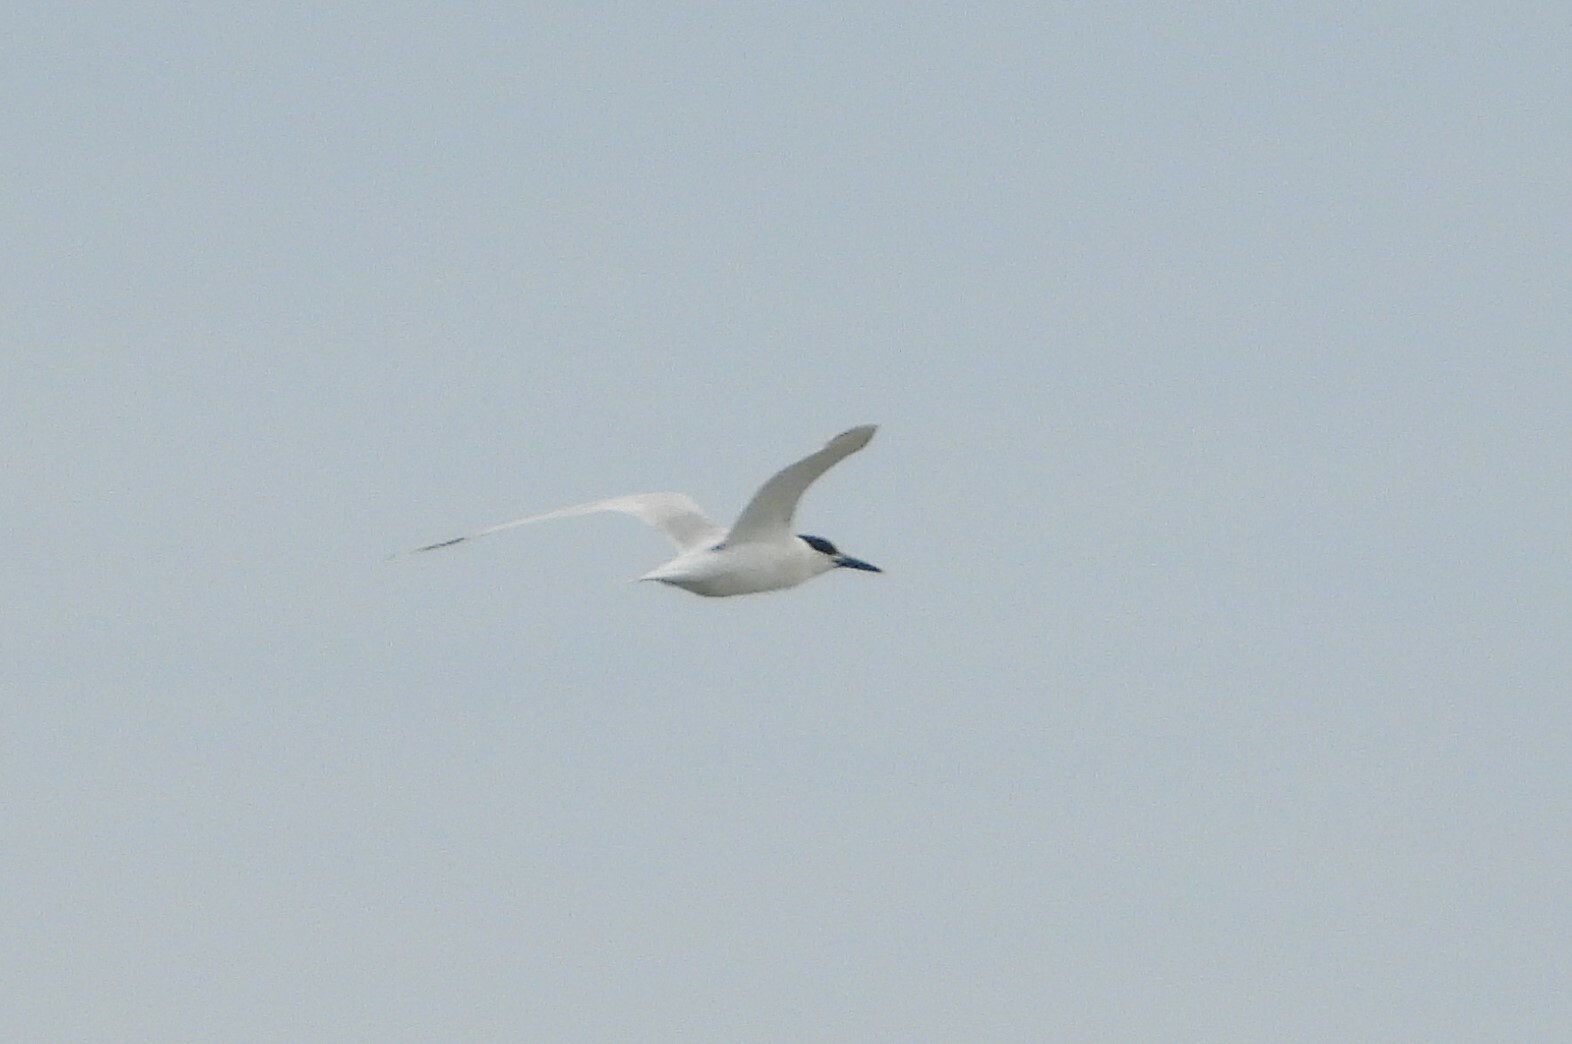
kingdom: Animalia
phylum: Chordata
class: Aves
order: Charadriiformes
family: Laridae
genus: Thalasseus
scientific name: Thalasseus sandvicensis
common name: Sandwich tern
